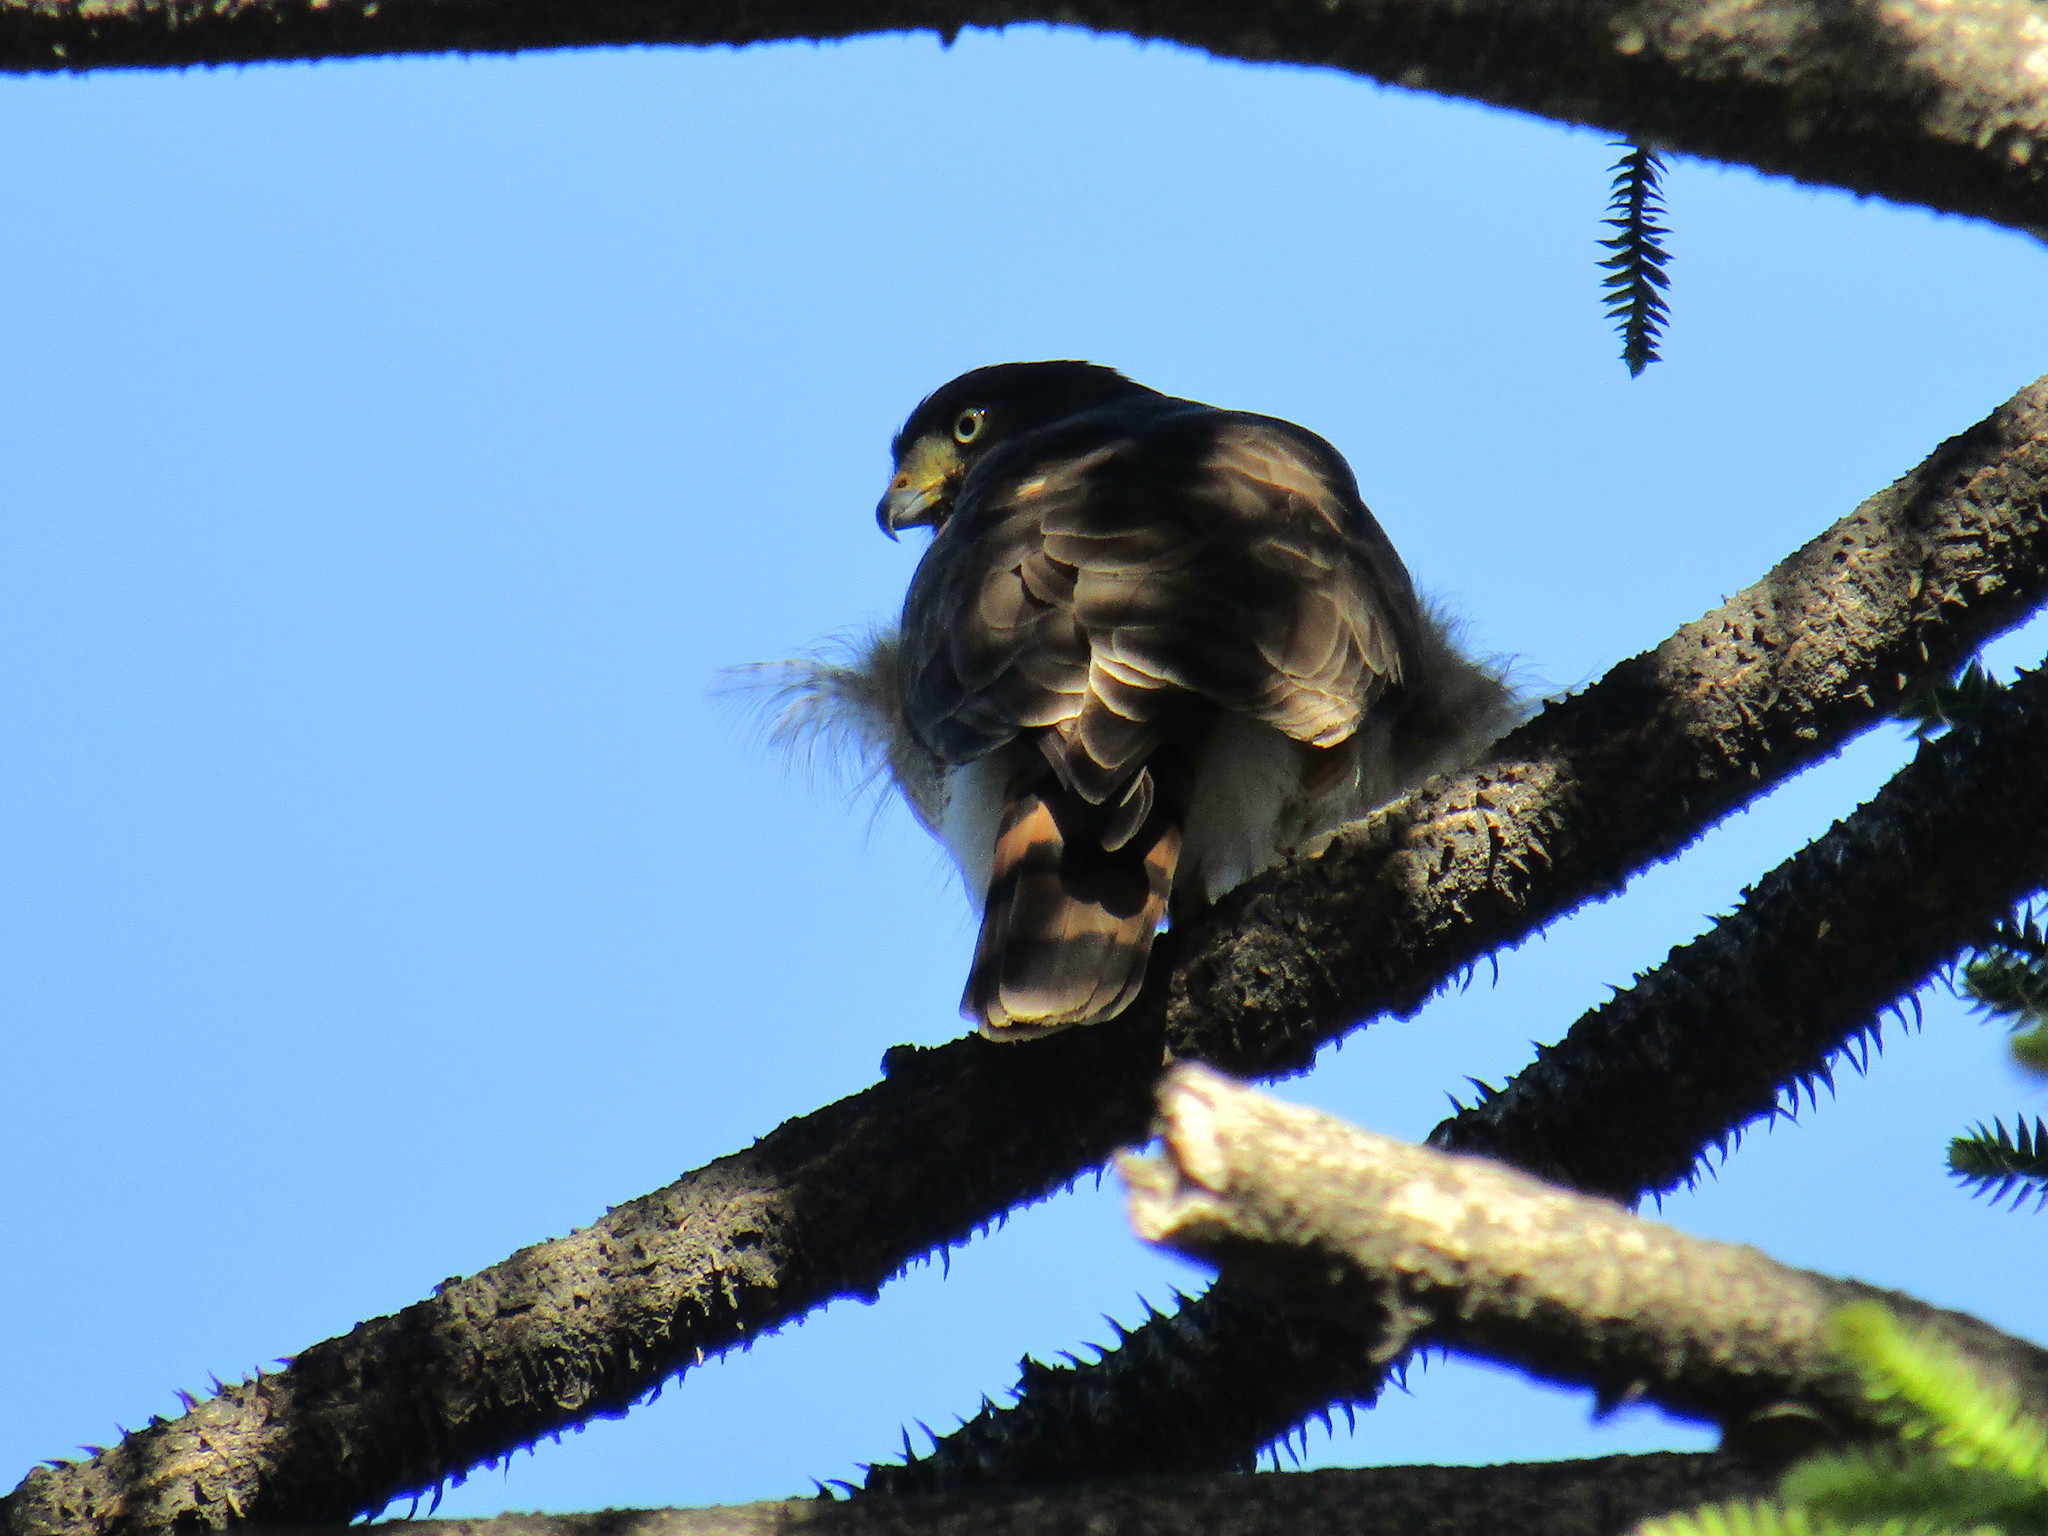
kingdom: Animalia
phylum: Chordata
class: Aves
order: Accipitriformes
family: Accipitridae
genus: Rupornis
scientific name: Rupornis magnirostris
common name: Roadside hawk
